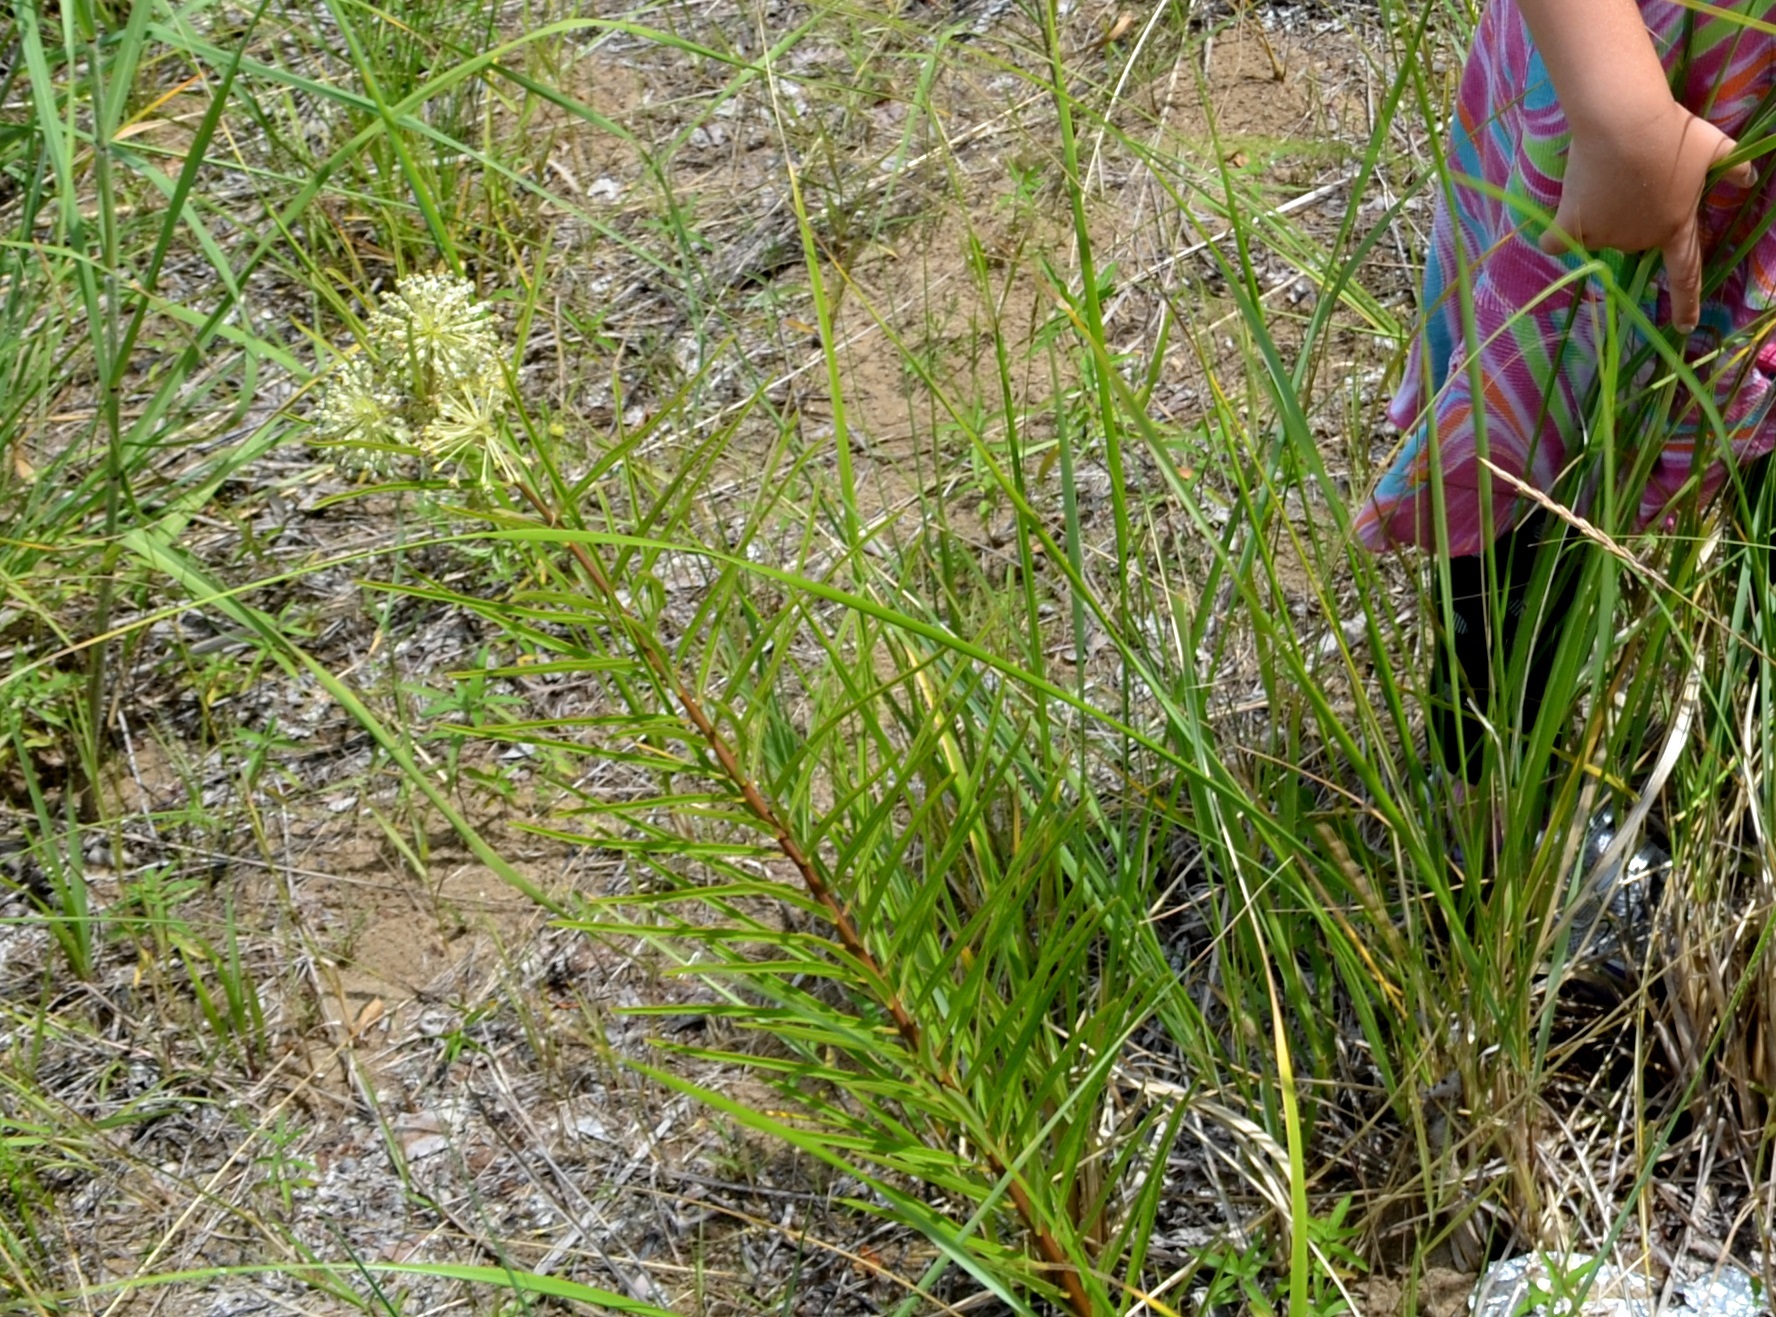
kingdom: Plantae
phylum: Tracheophyta
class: Magnoliopsida
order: Gentianales
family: Apocynaceae
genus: Asclepias
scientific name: Asclepias hirtella
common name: Prairie milkweed
